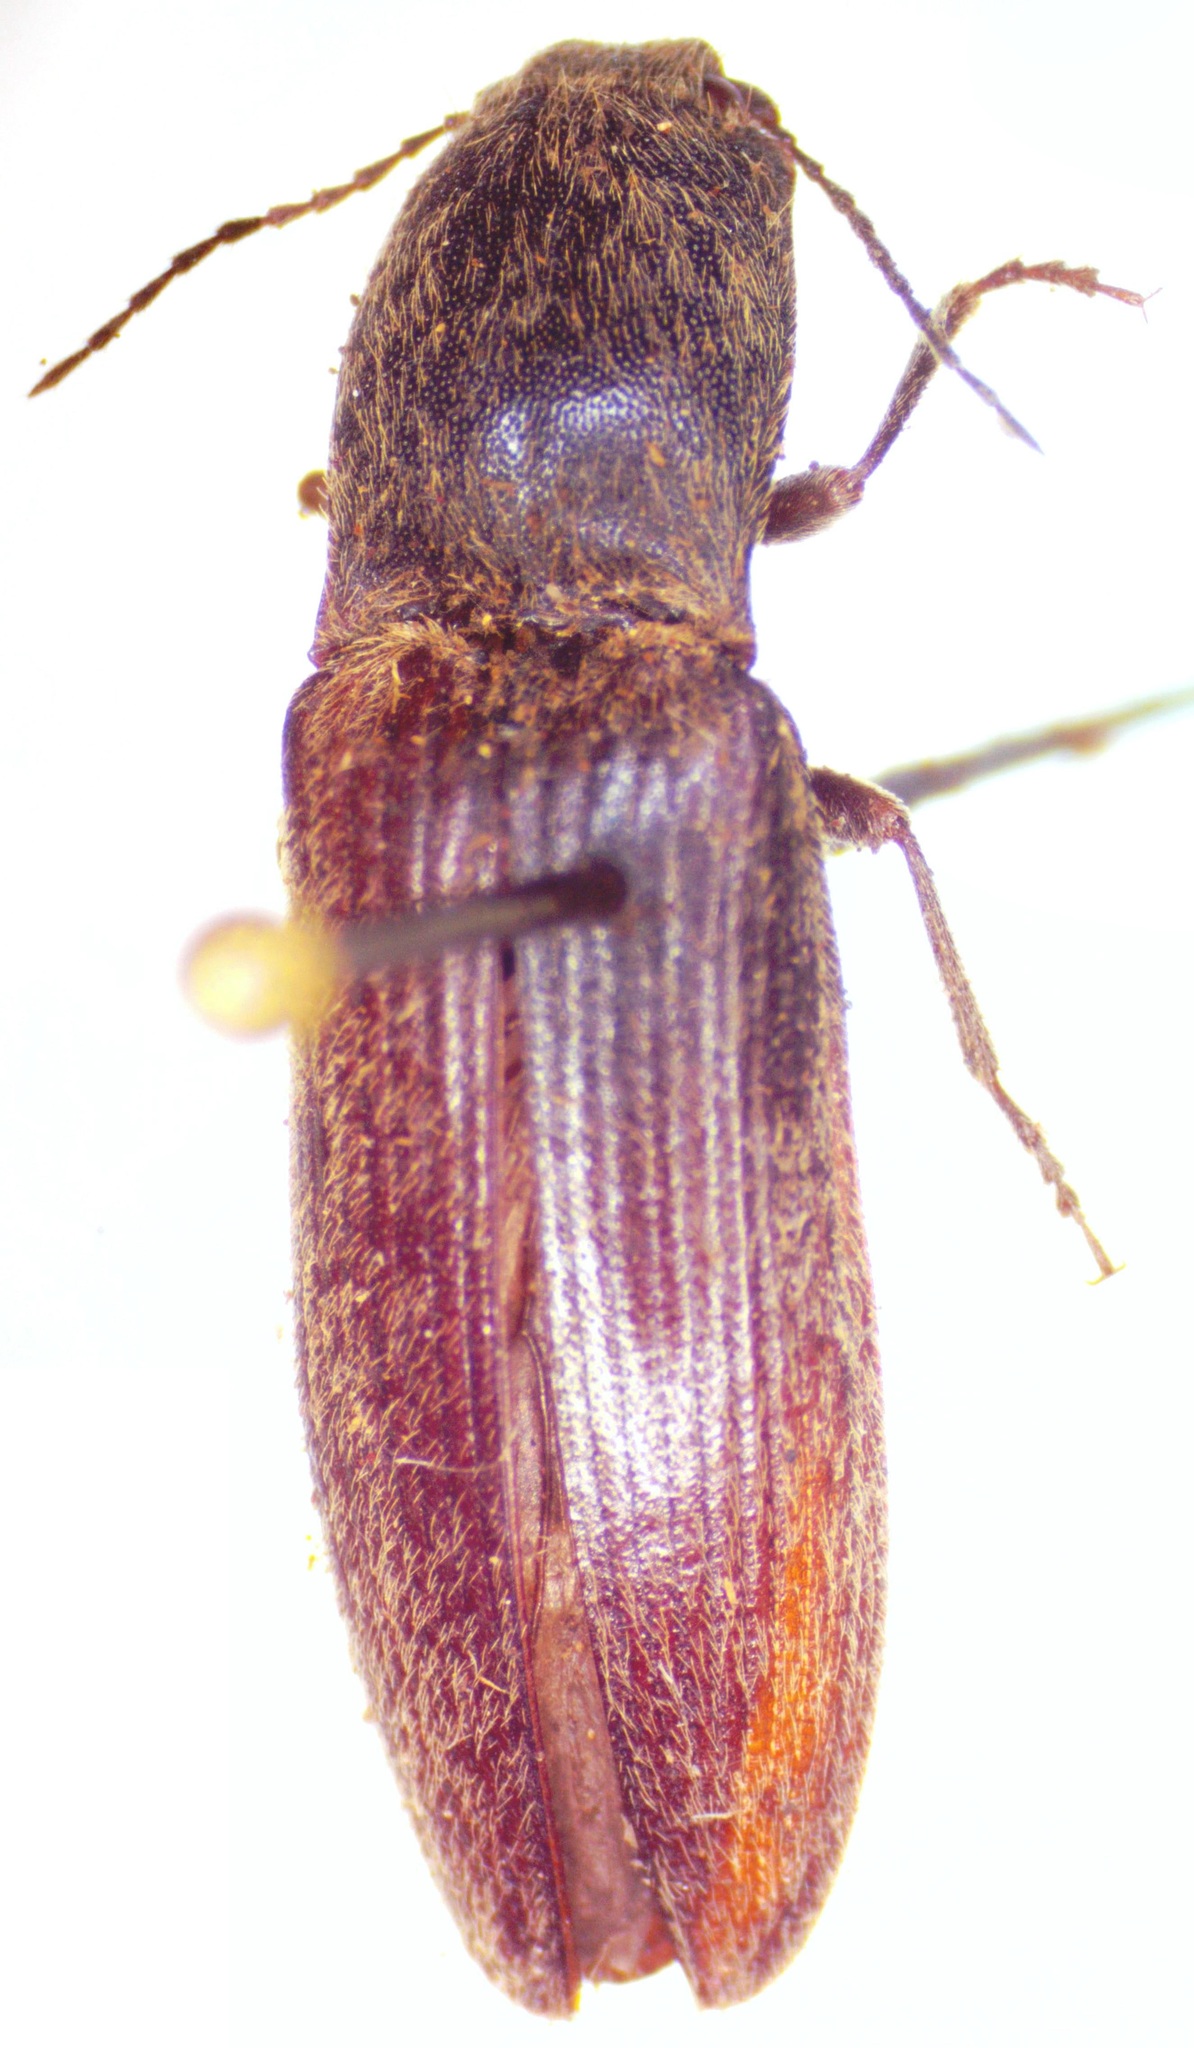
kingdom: Animalia
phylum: Arthropoda
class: Insecta
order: Coleoptera
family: Elateridae
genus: Athous
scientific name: Athous haemorrhoidalis
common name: Red-brown click beetle
